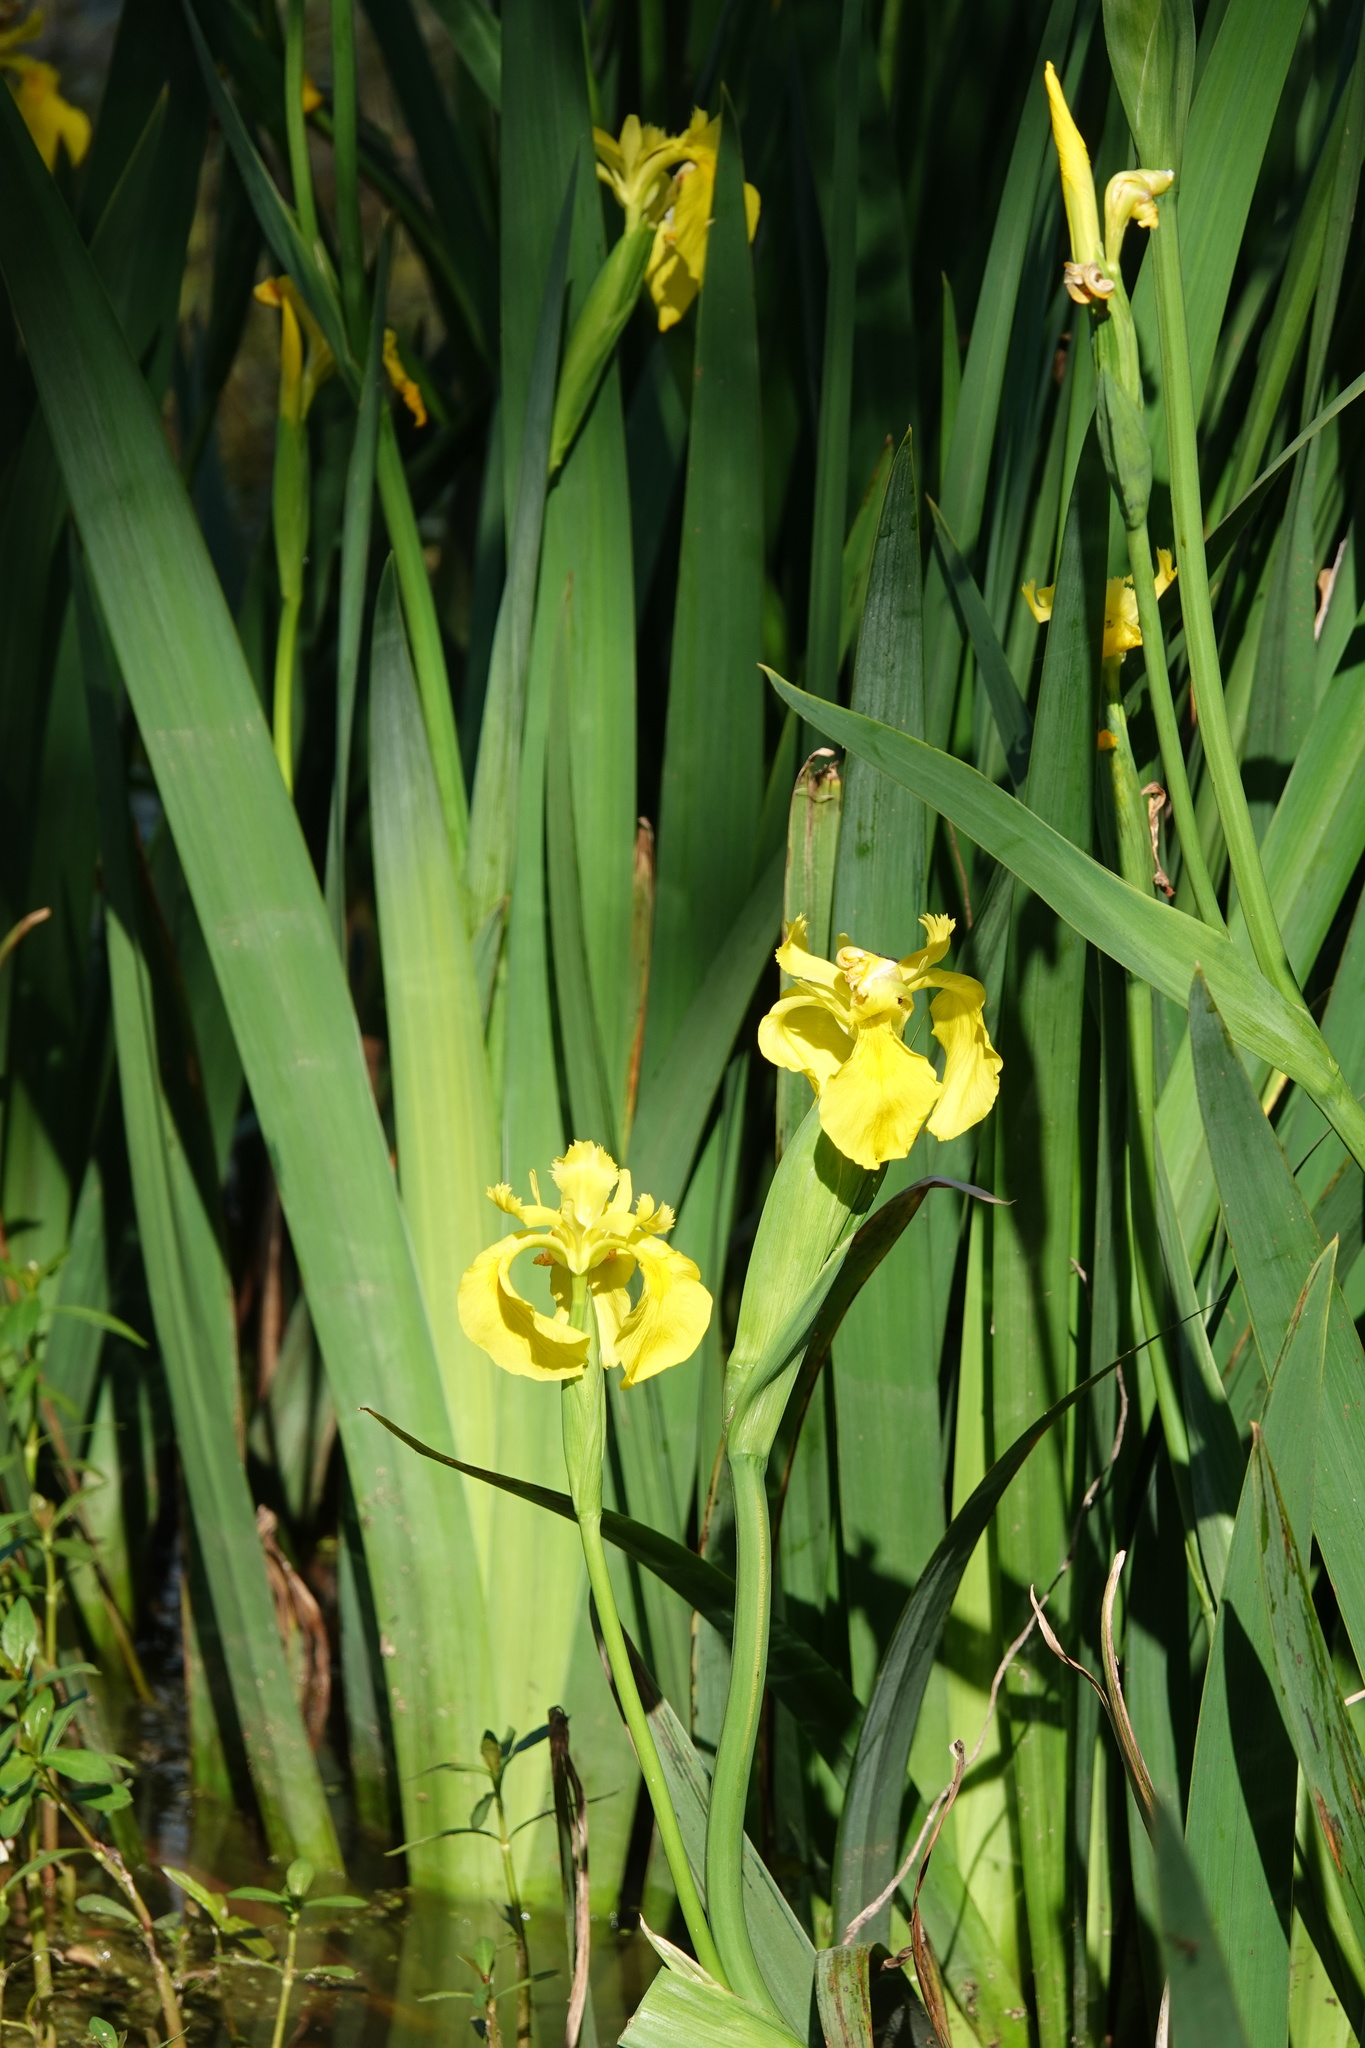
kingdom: Plantae
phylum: Tracheophyta
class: Liliopsida
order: Asparagales
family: Iridaceae
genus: Iris
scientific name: Iris pseudacorus
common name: Yellow flag
